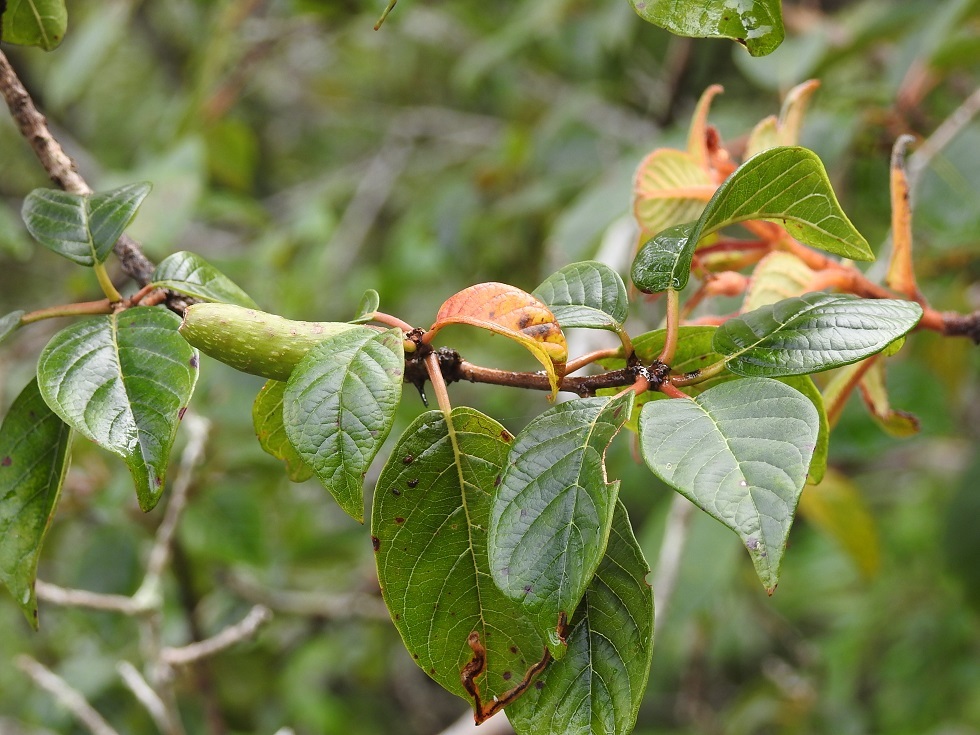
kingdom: Plantae
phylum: Tracheophyta
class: Magnoliopsida
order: Myrtales
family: Onagraceae
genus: Hauya
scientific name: Hauya elegans
